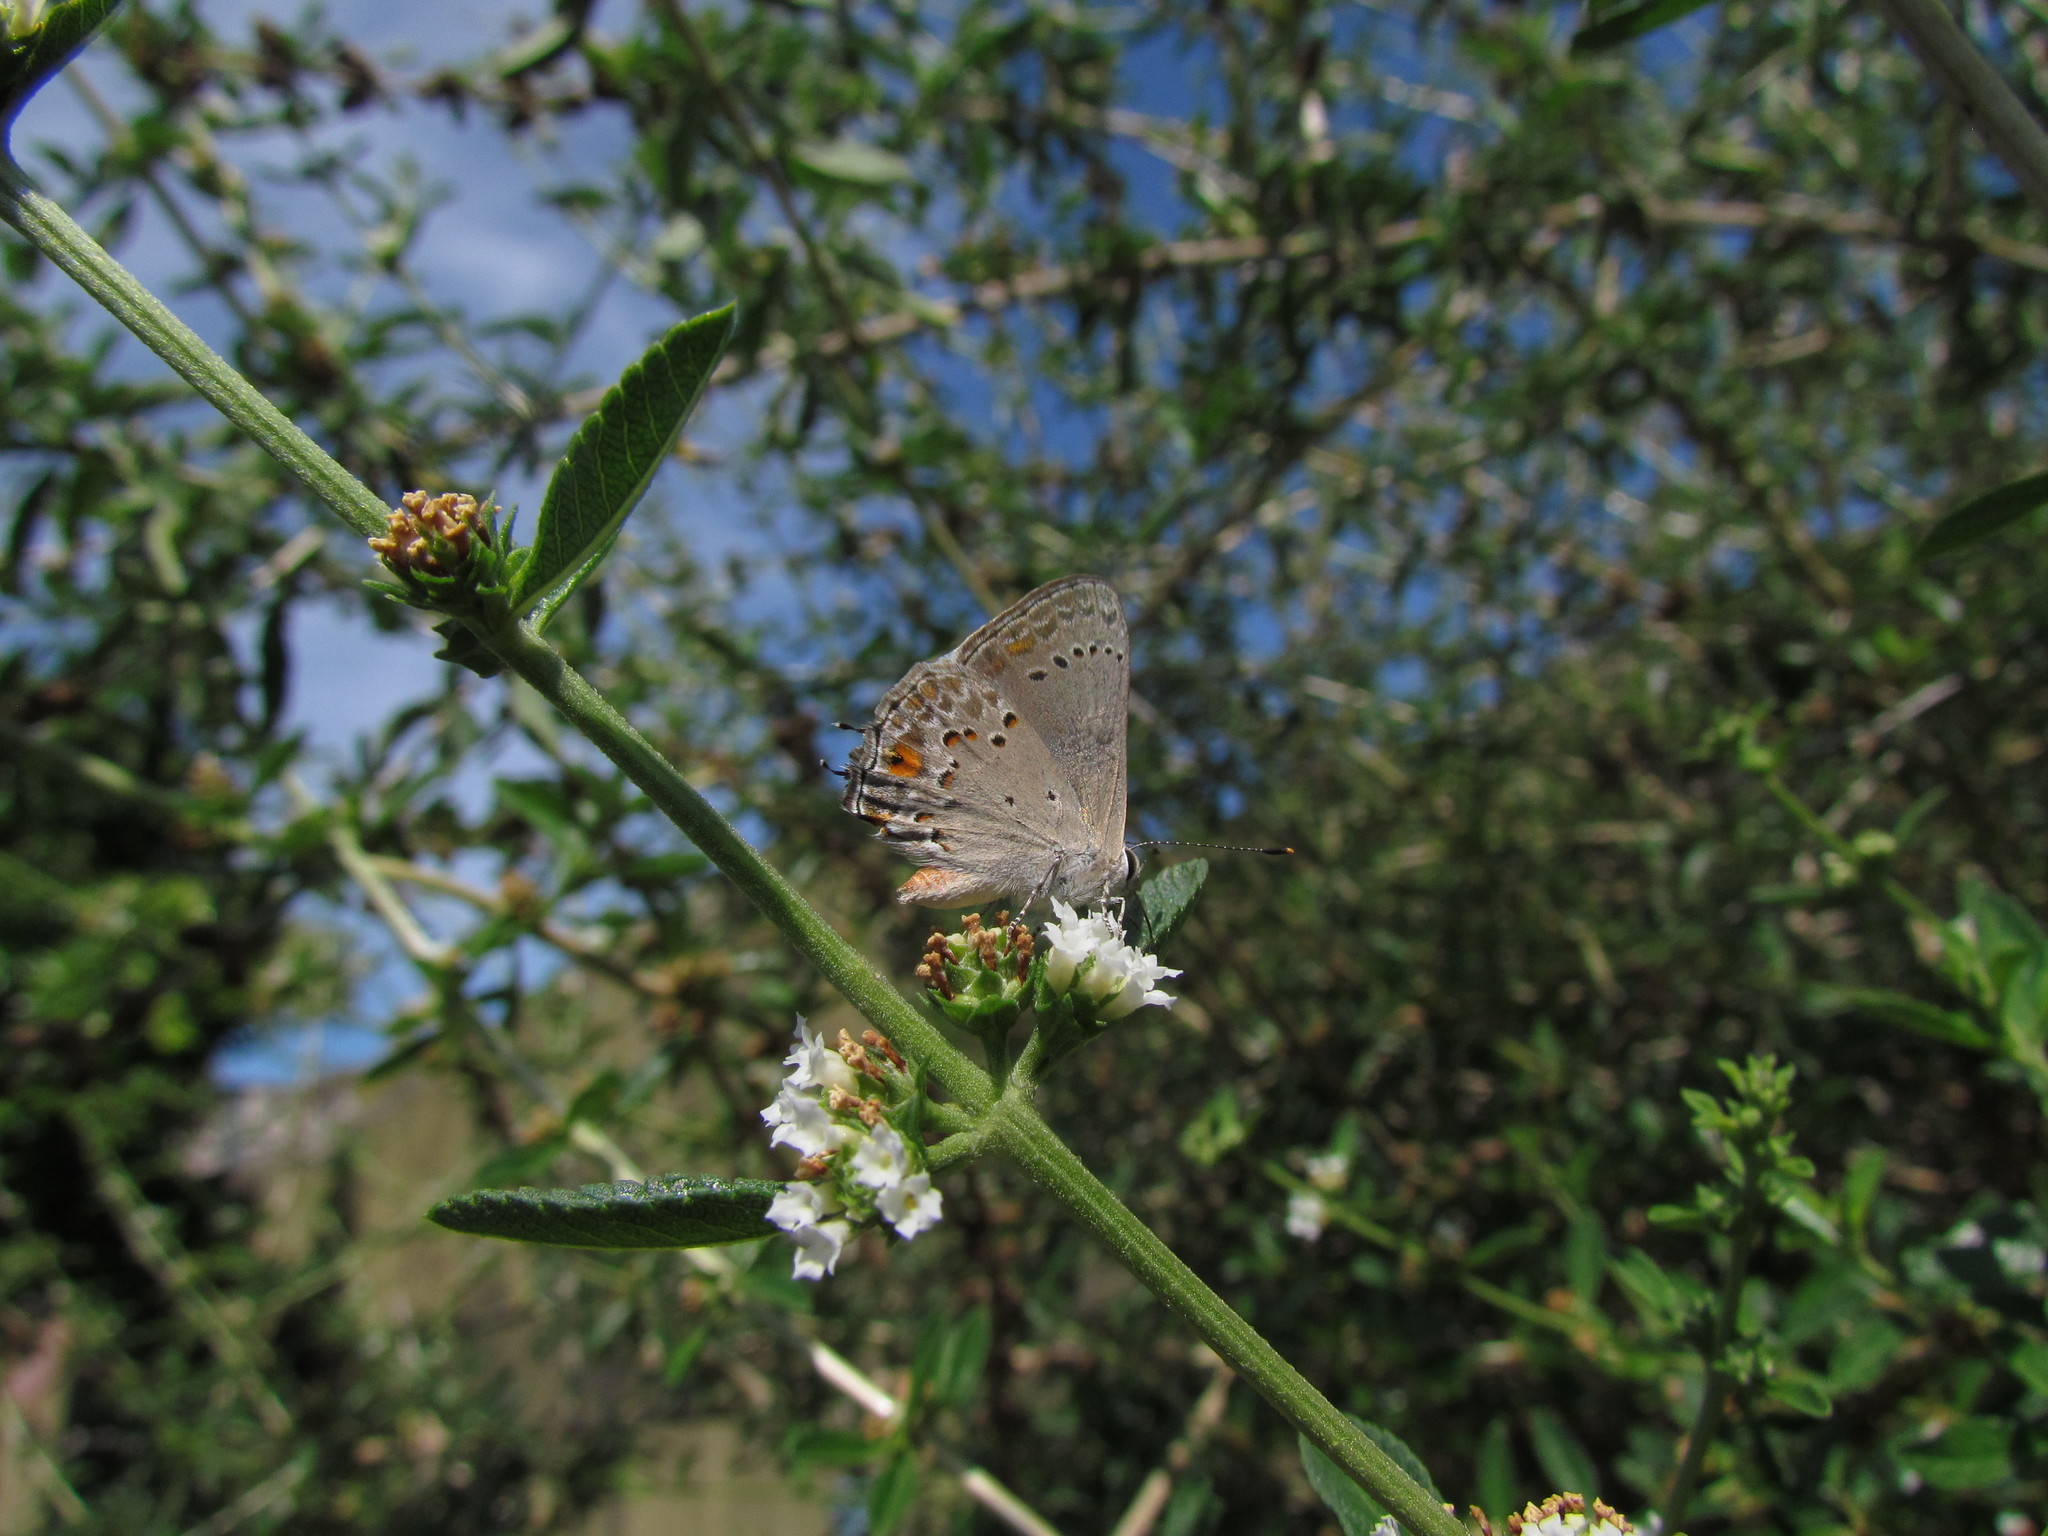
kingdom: Animalia
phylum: Arthropoda
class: Insecta
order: Lepidoptera
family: Lycaenidae
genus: Strymon
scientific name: Strymon eurytulus
